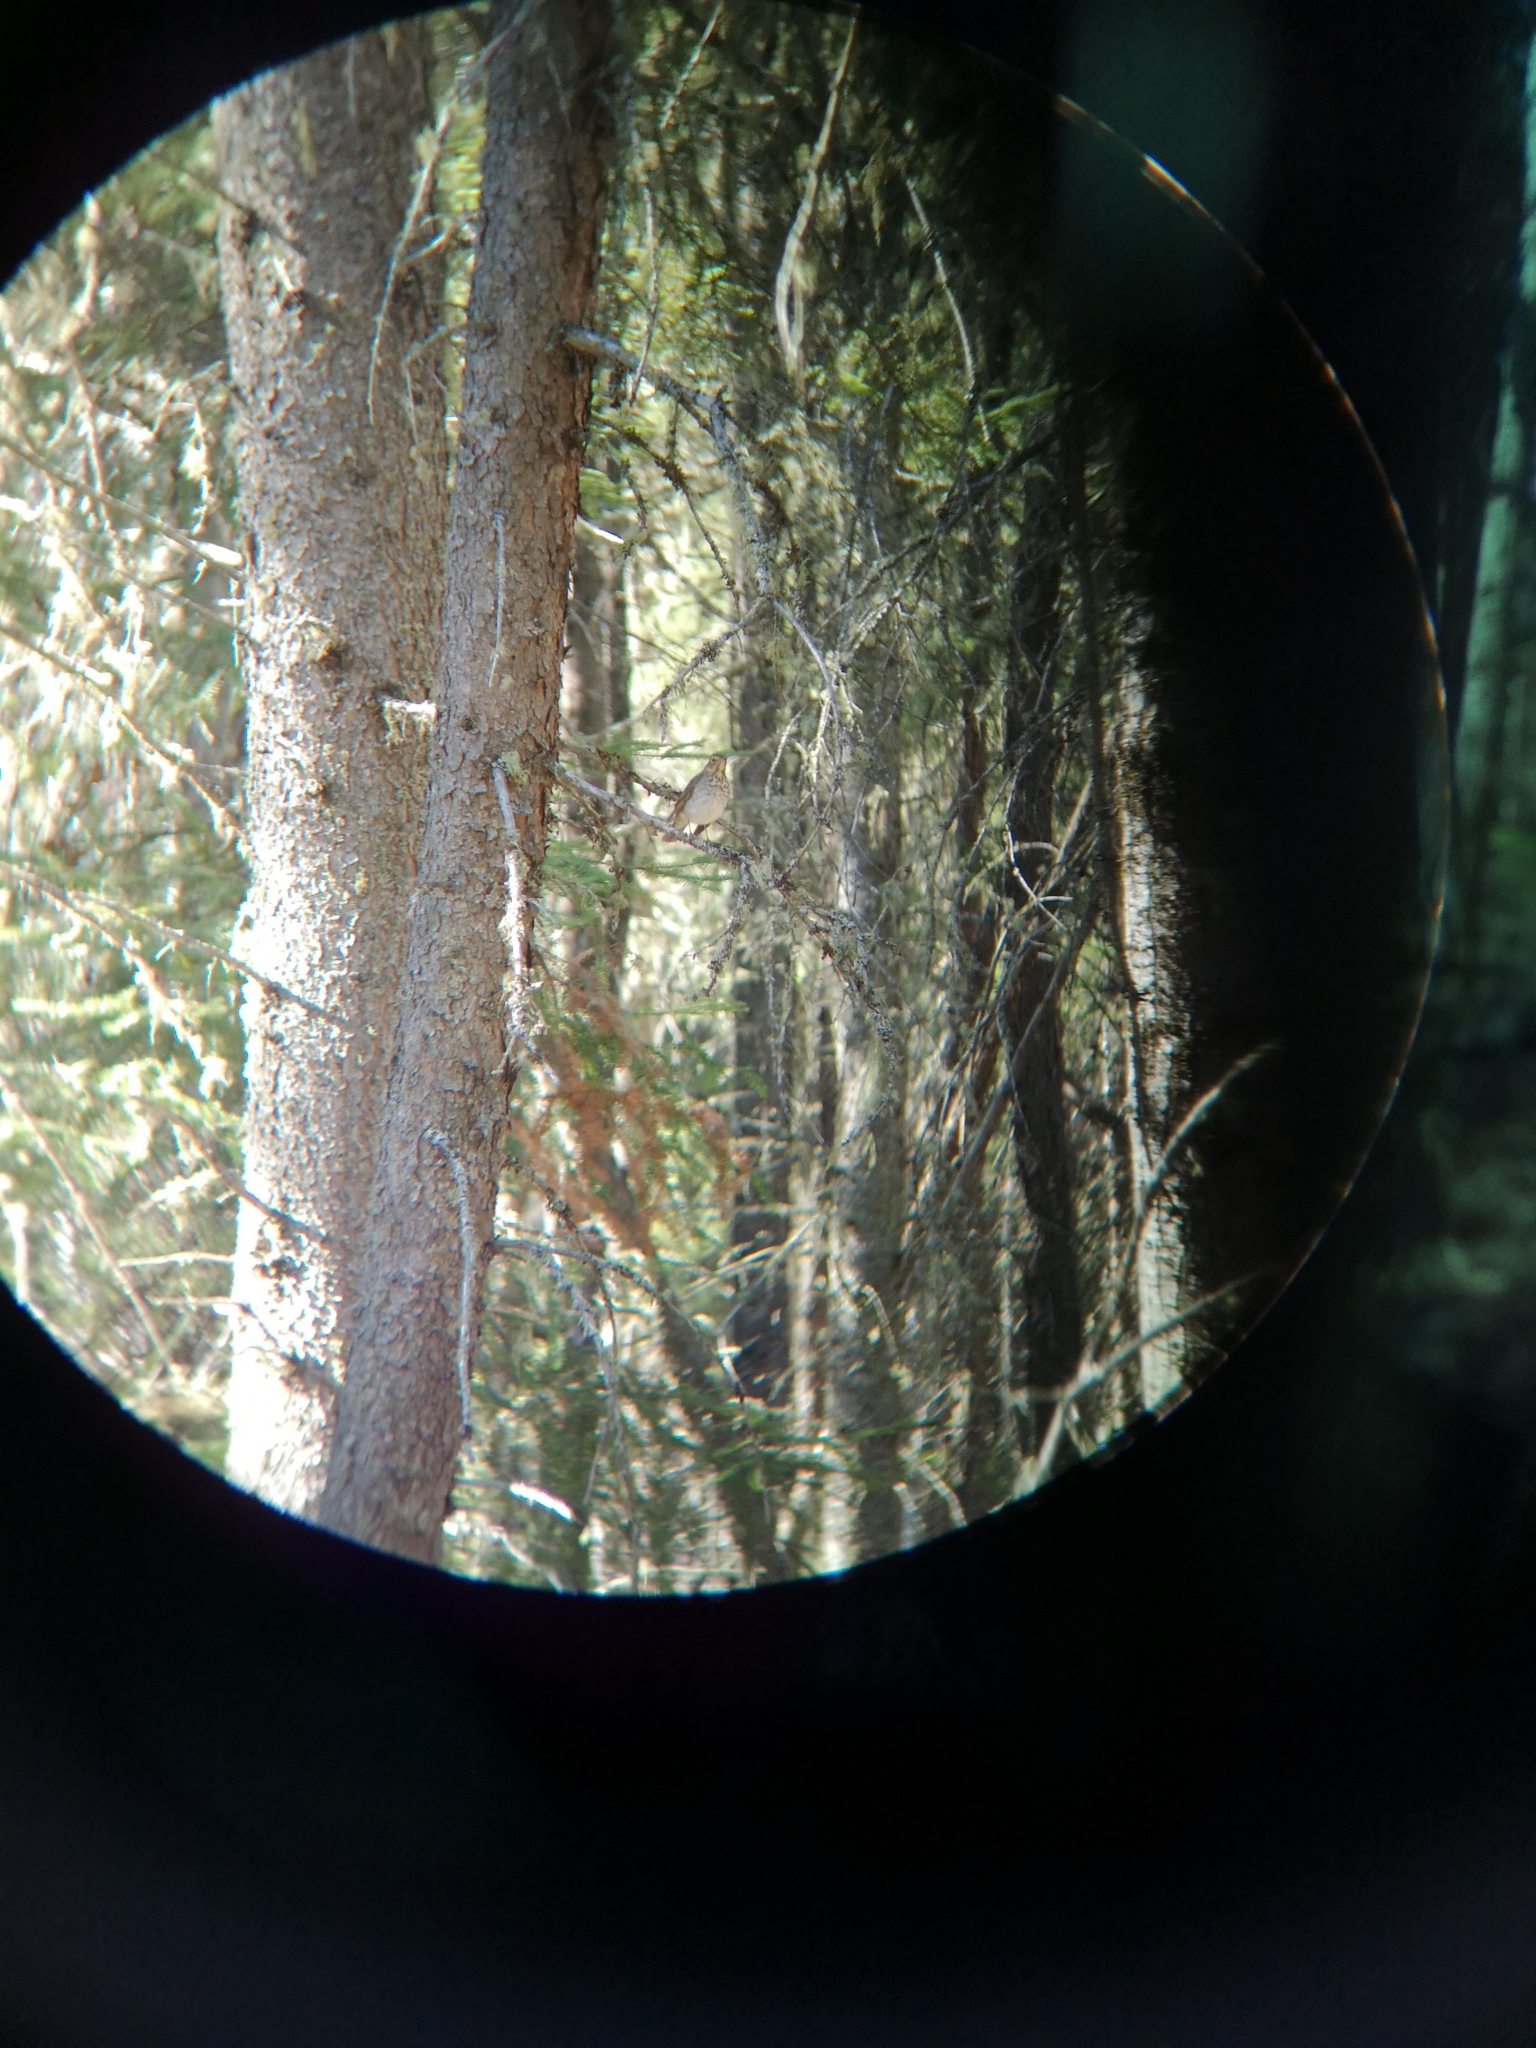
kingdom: Animalia
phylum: Chordata
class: Aves
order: Passeriformes
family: Turdidae
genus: Catharus
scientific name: Catharus ustulatus
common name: Swainson's thrush
